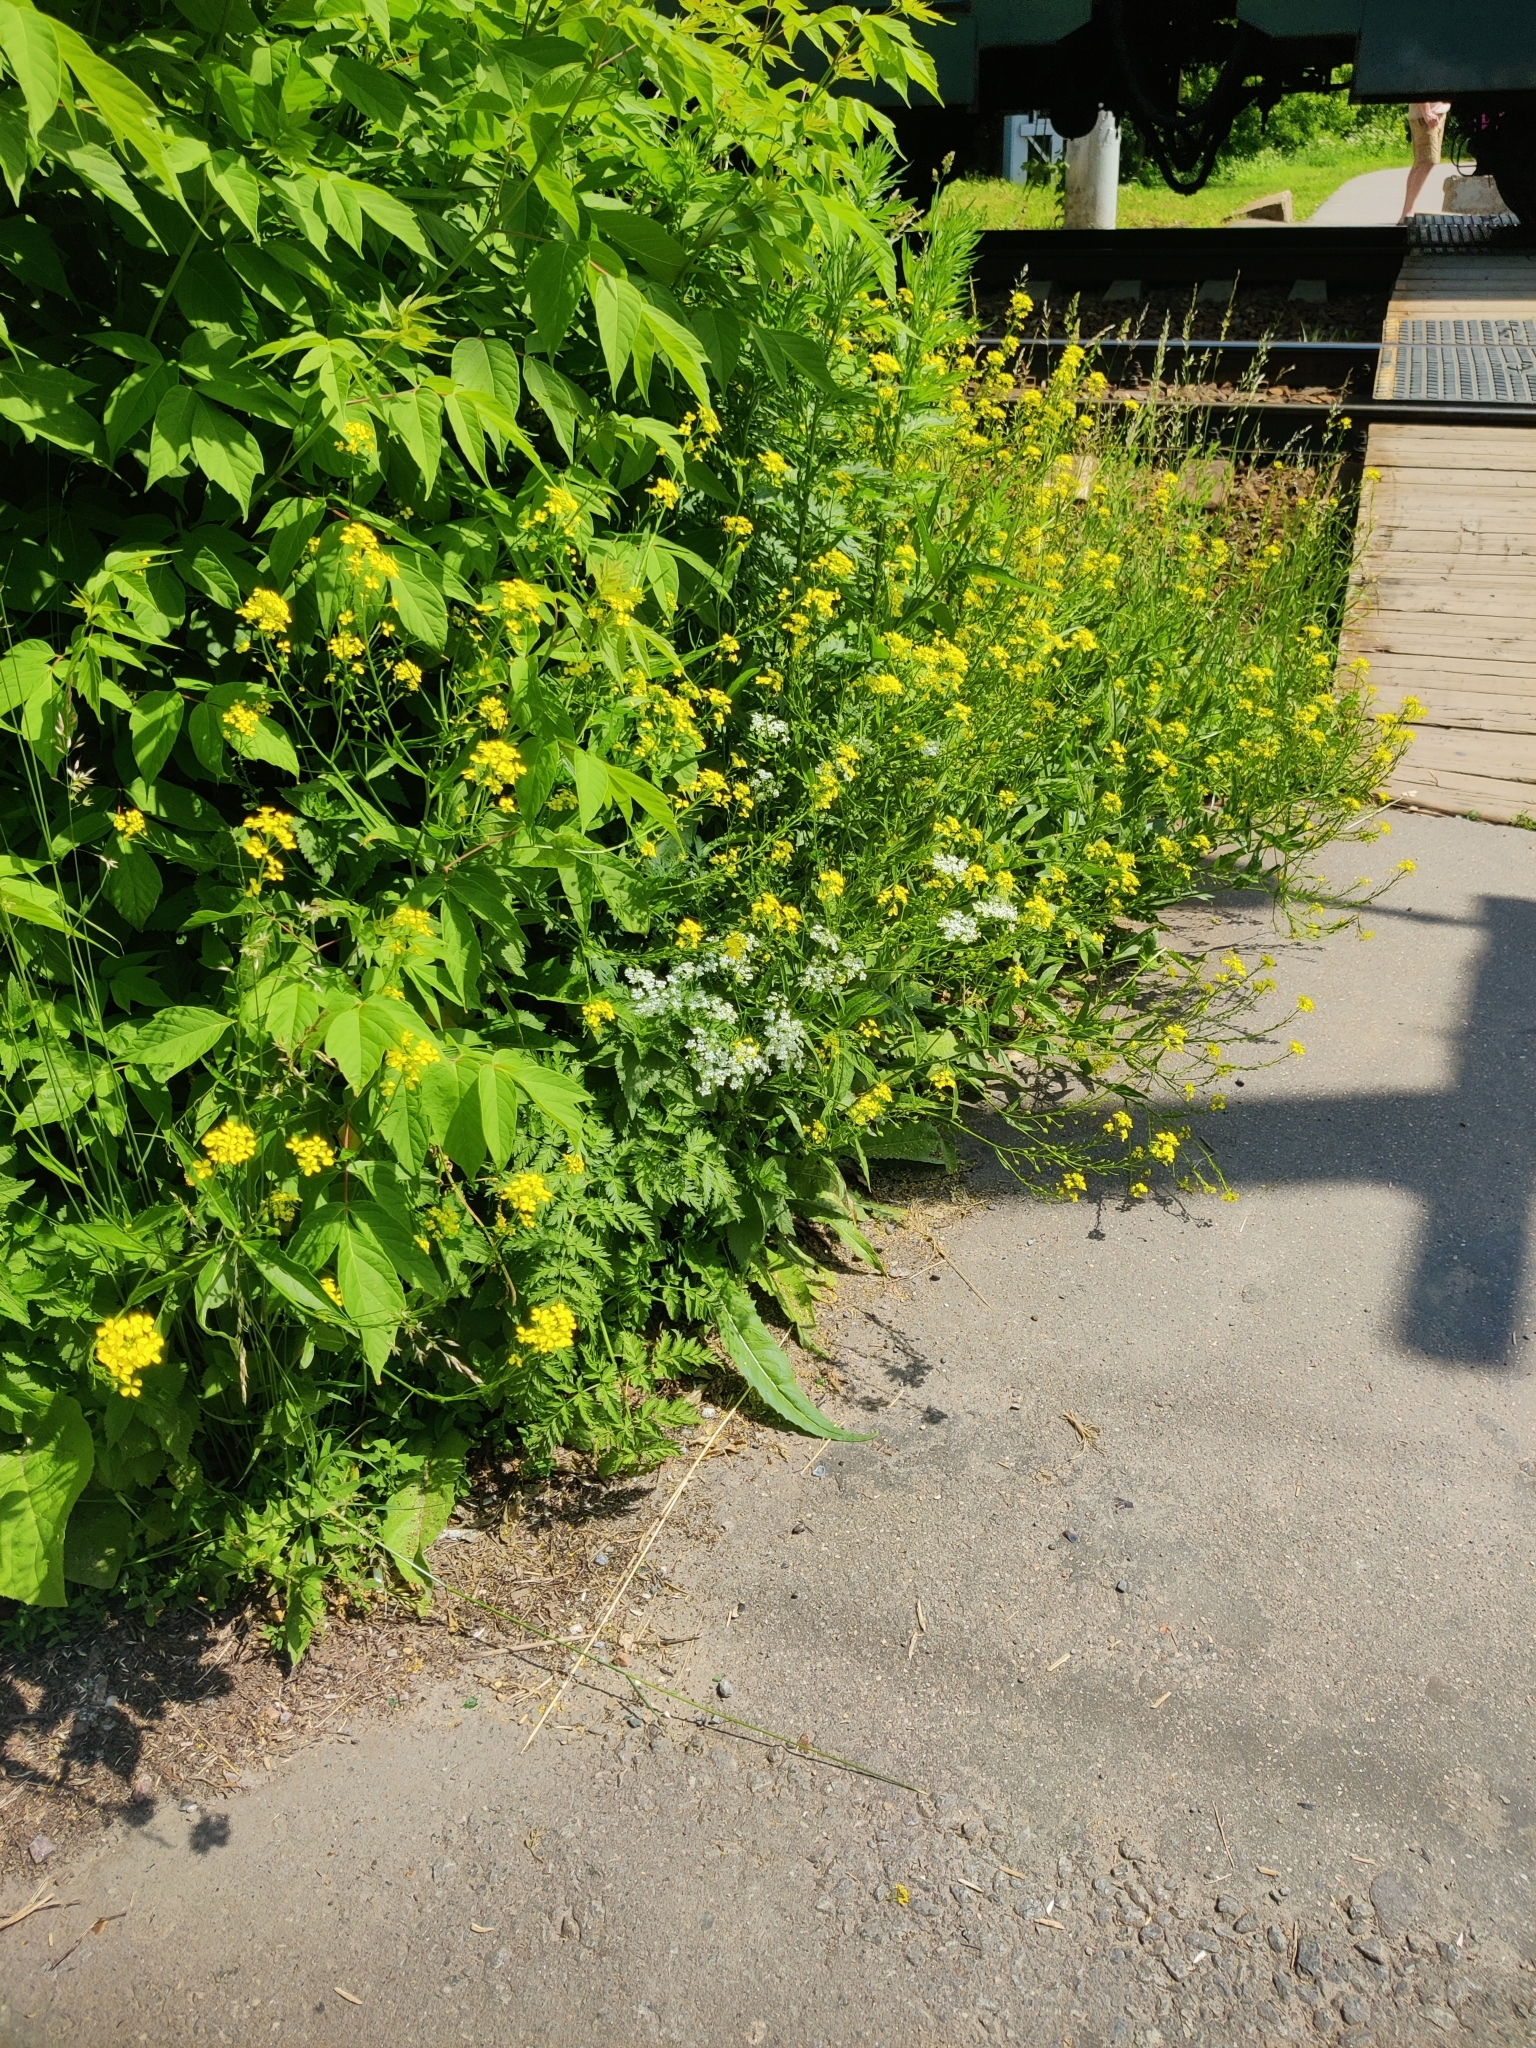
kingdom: Plantae
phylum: Tracheophyta
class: Magnoliopsida
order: Brassicales
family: Brassicaceae
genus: Bunias
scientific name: Bunias orientalis
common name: Warty-cabbage
